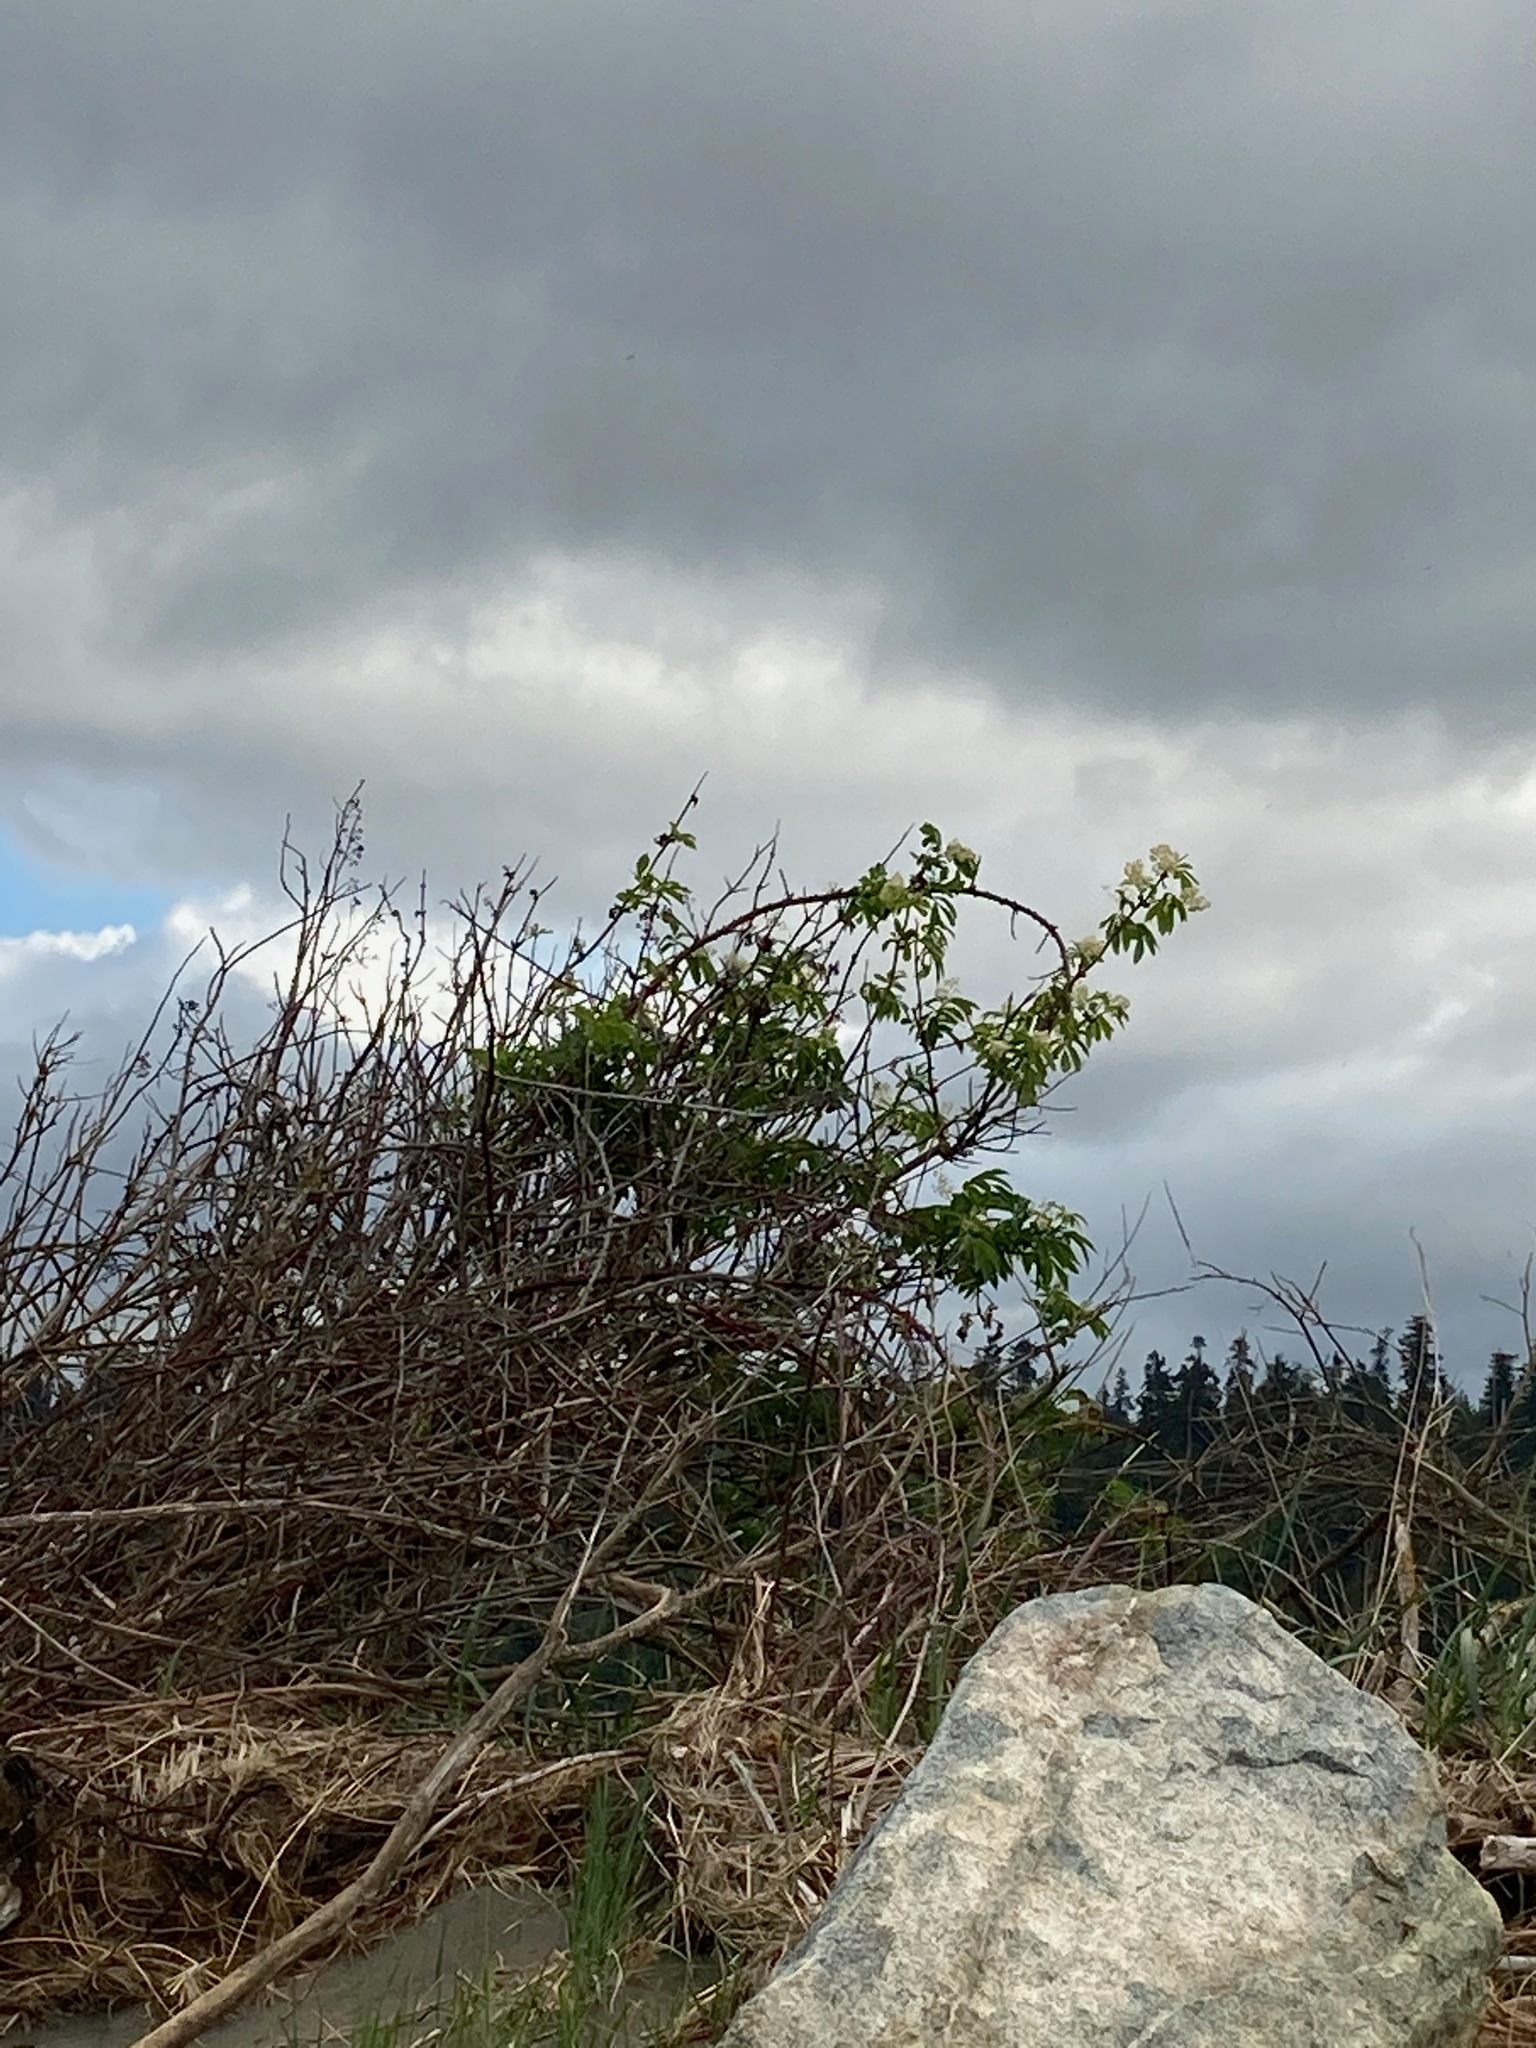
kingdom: Plantae
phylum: Tracheophyta
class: Magnoliopsida
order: Dipsacales
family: Viburnaceae
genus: Sambucus
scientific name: Sambucus racemosa
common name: Red-berried elder
